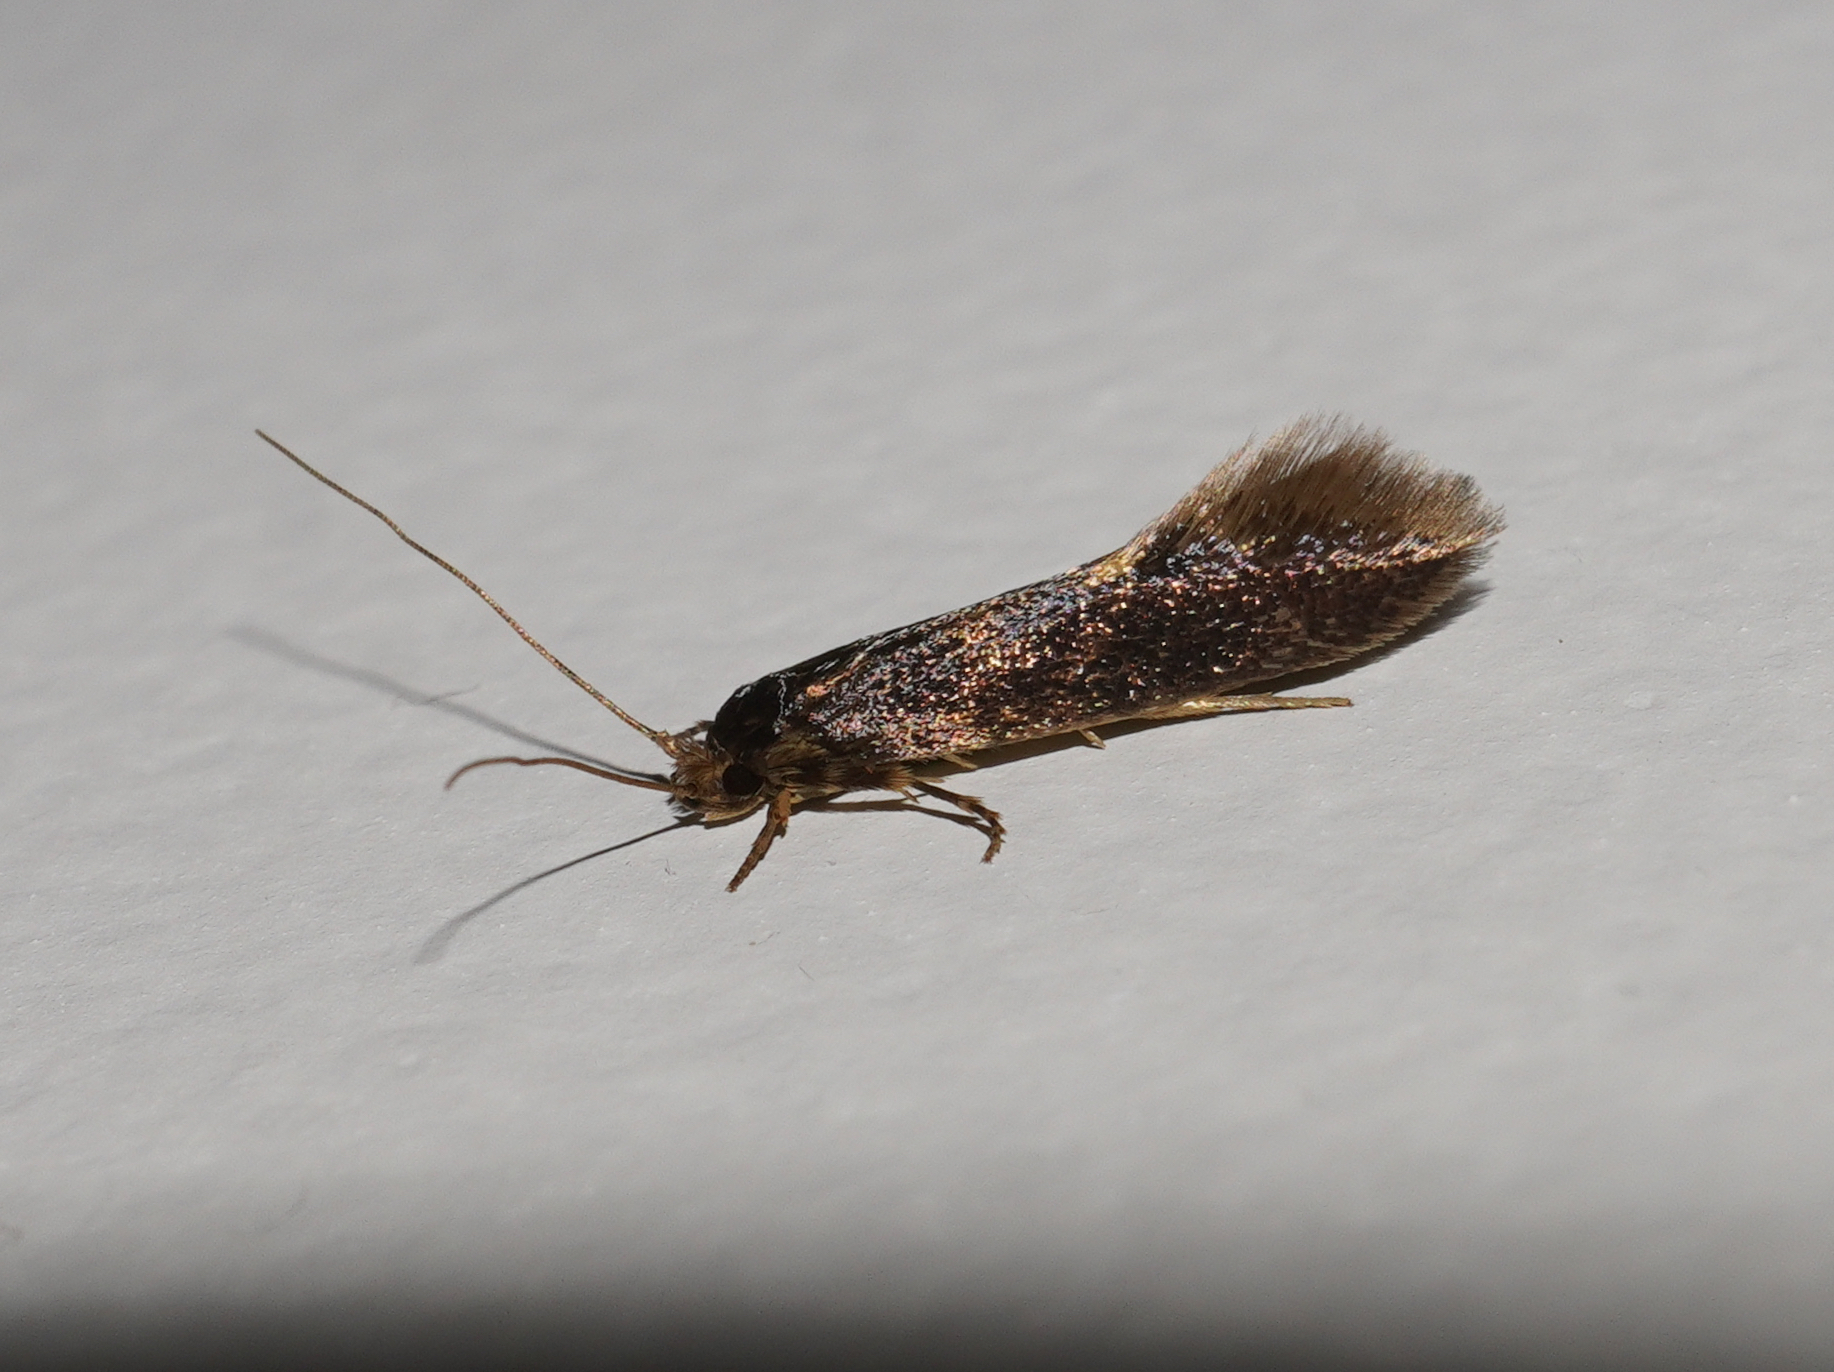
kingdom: Animalia
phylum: Arthropoda
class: Insecta
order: Lepidoptera
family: Tineidae
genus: Opogona
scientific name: Opogona omoscopa
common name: Moth
